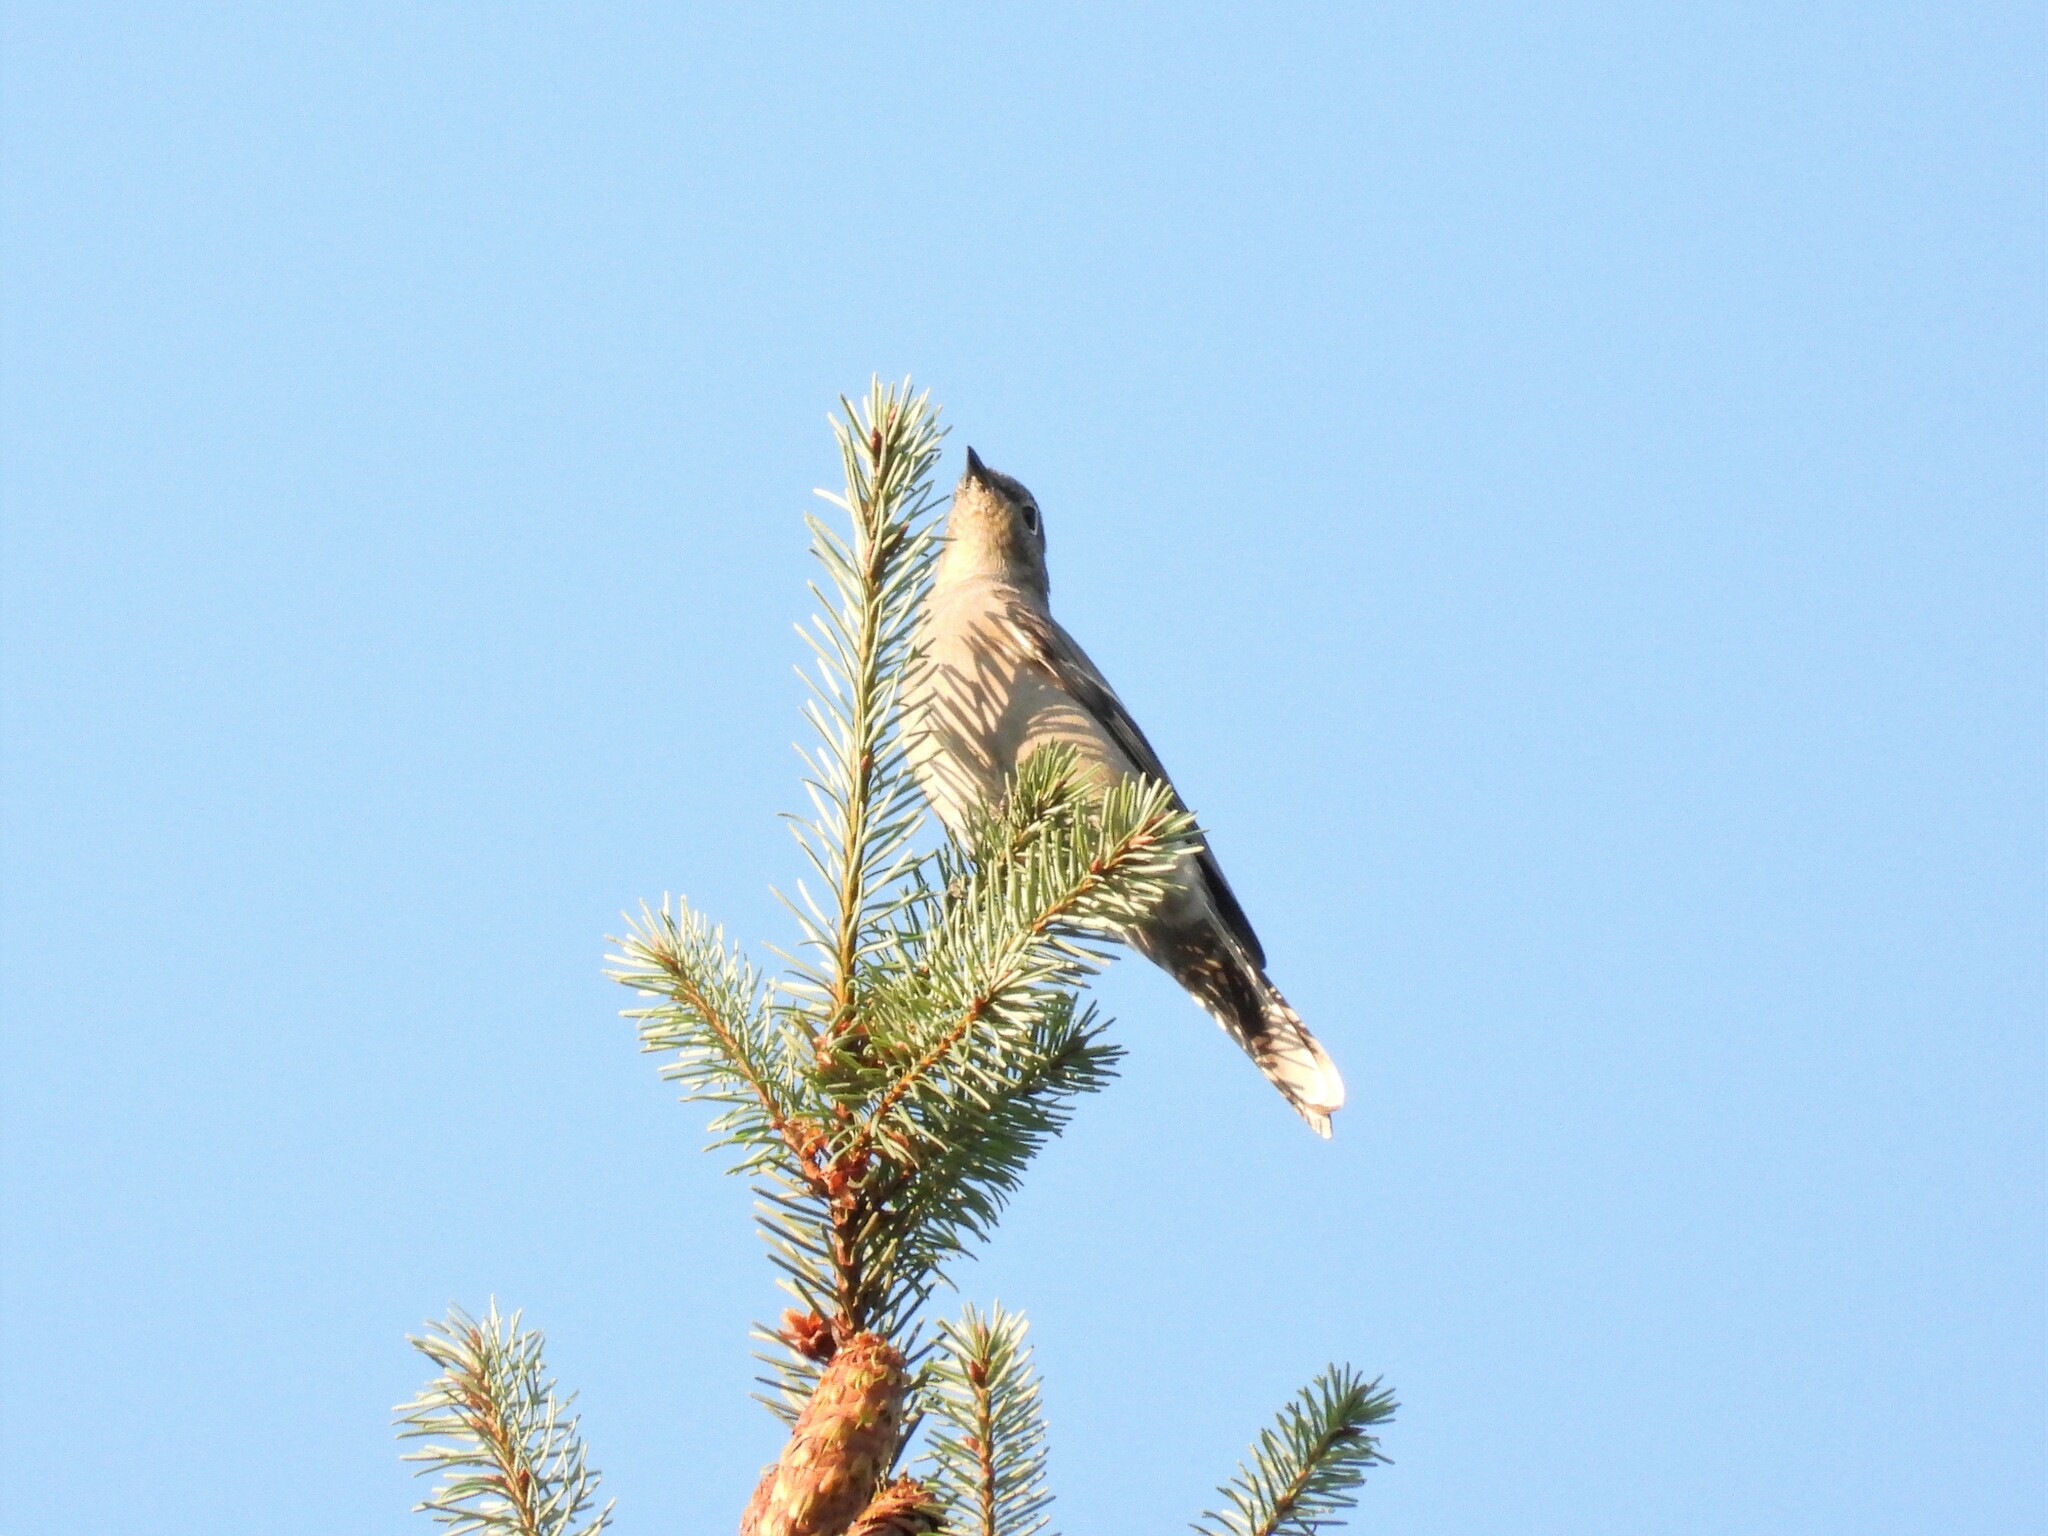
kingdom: Animalia
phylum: Chordata
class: Aves
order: Passeriformes
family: Turdidae
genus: Myadestes
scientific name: Myadestes townsendi
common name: Townsend's solitaire
